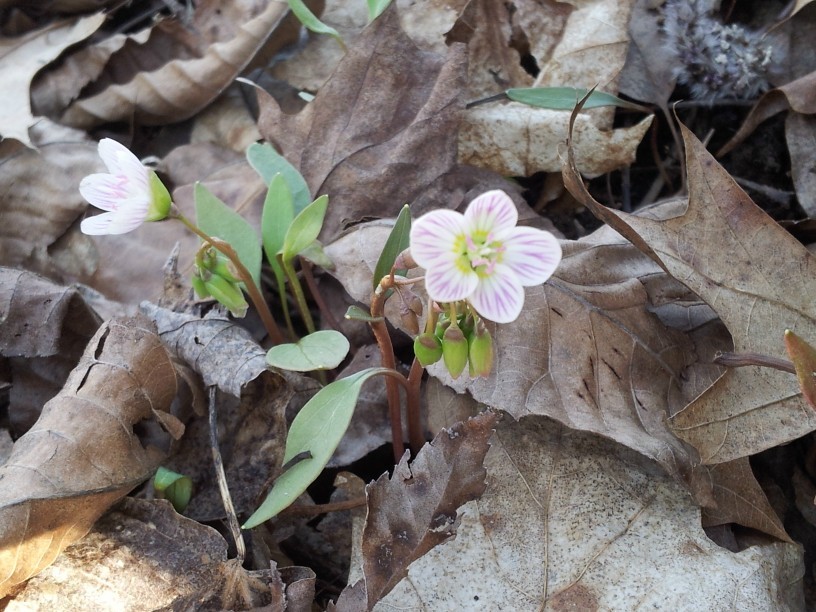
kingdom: Plantae
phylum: Tracheophyta
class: Magnoliopsida
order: Caryophyllales
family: Montiaceae
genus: Claytonia
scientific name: Claytonia caroliniana
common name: Carolina spring beauty
